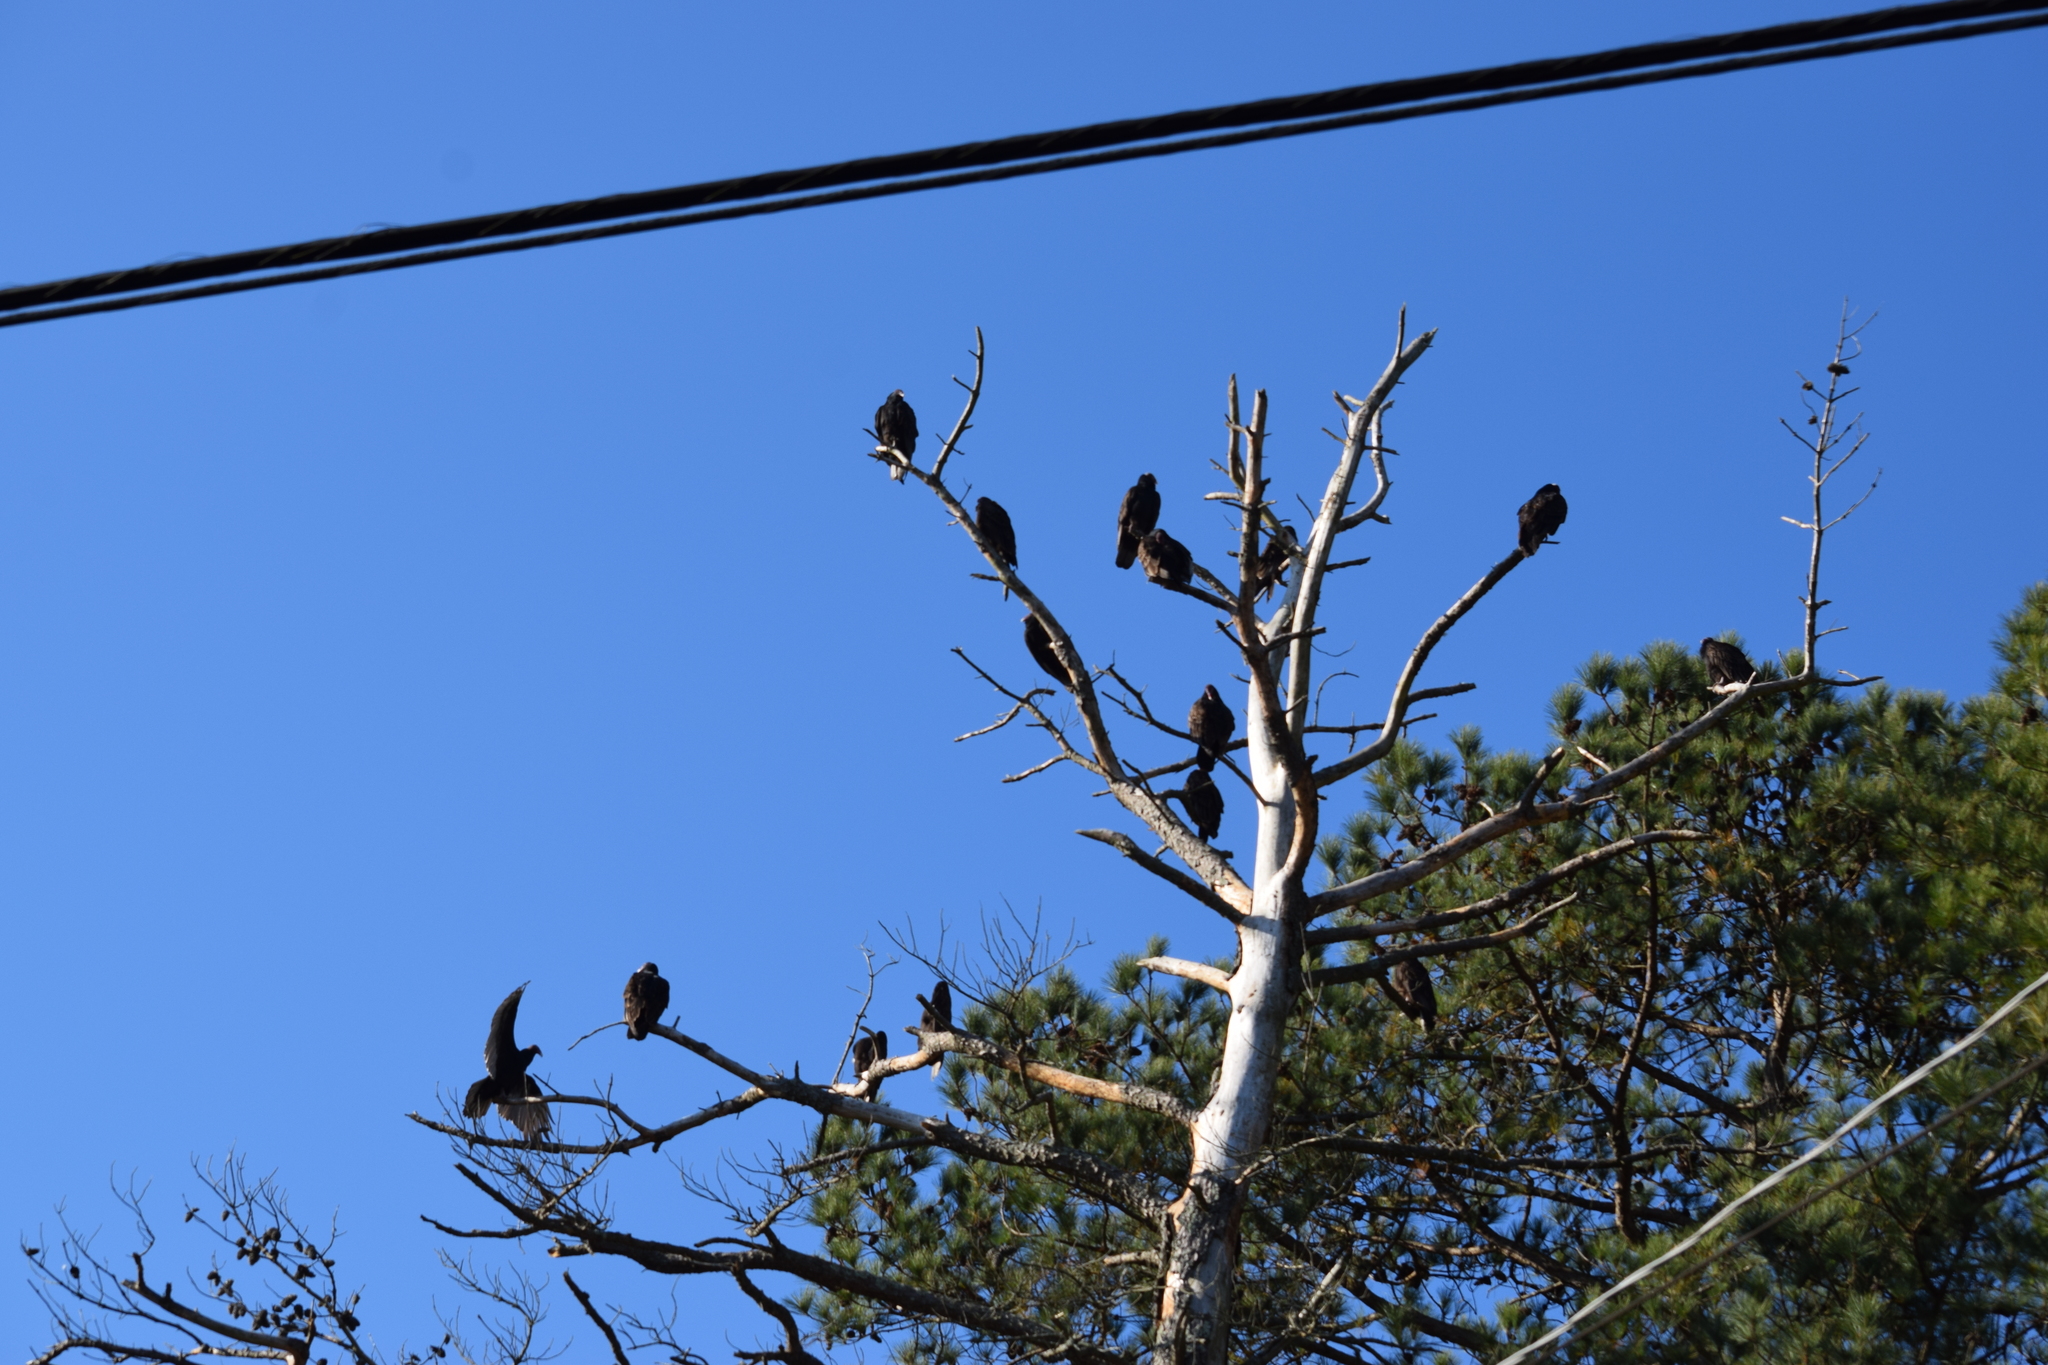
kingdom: Animalia
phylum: Chordata
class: Aves
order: Accipitriformes
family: Cathartidae
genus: Cathartes
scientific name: Cathartes aura
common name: Turkey vulture
